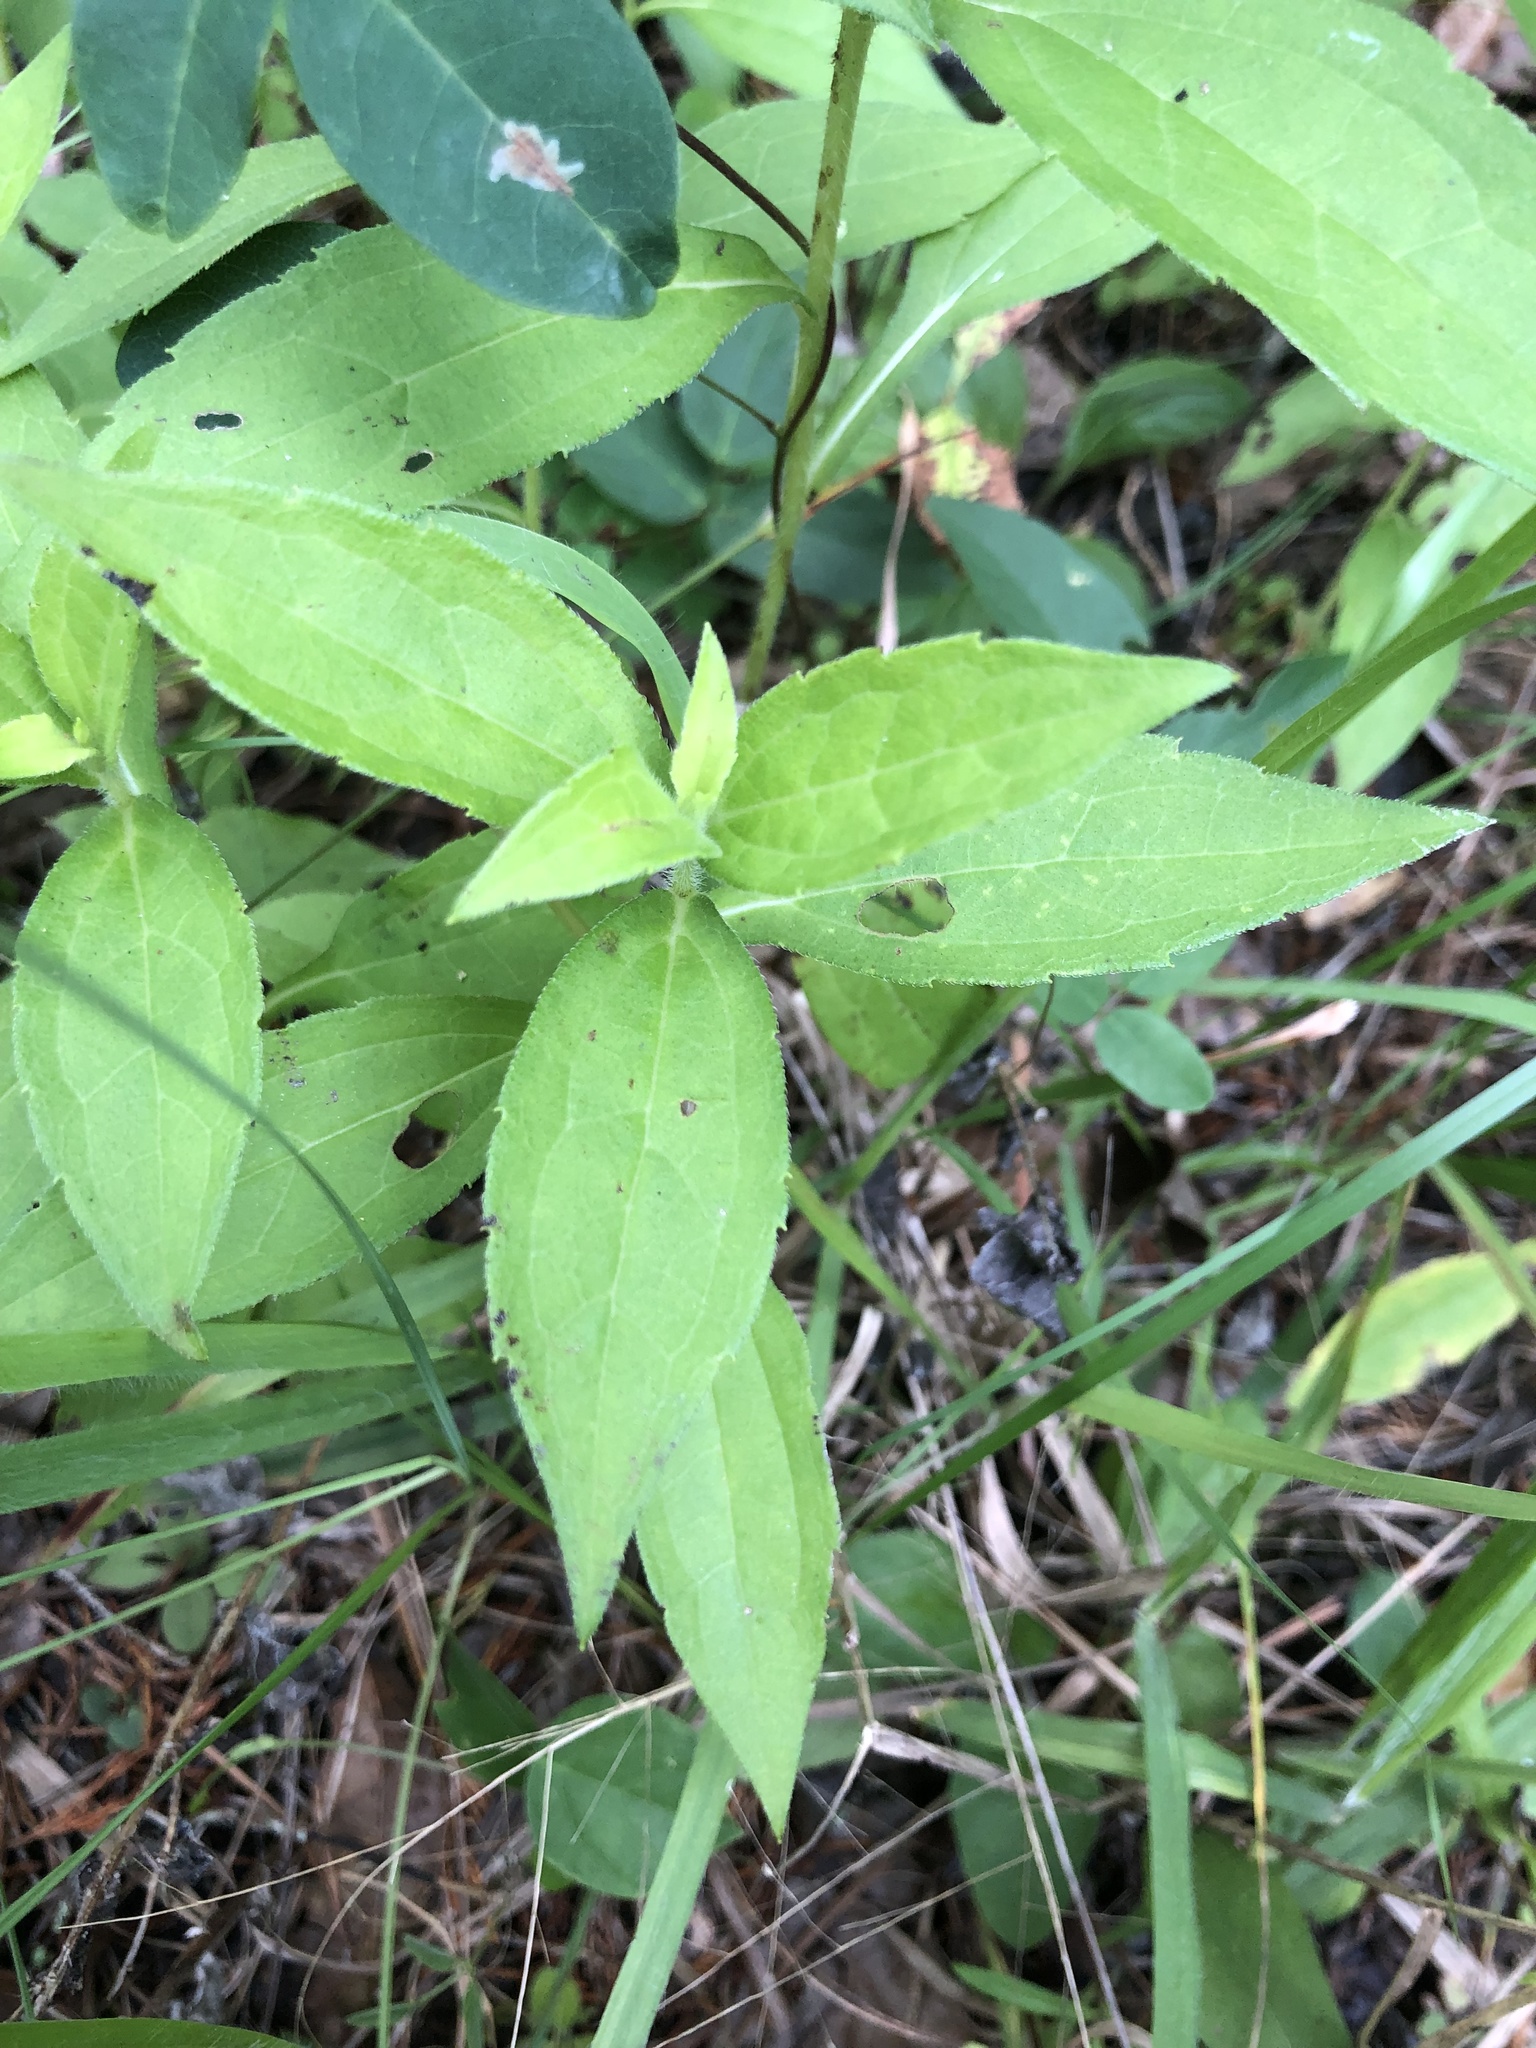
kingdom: Plantae
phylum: Tracheophyta
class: Magnoliopsida
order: Asterales
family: Asteraceae
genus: Rudbeckia
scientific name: Rudbeckia terranigrae
